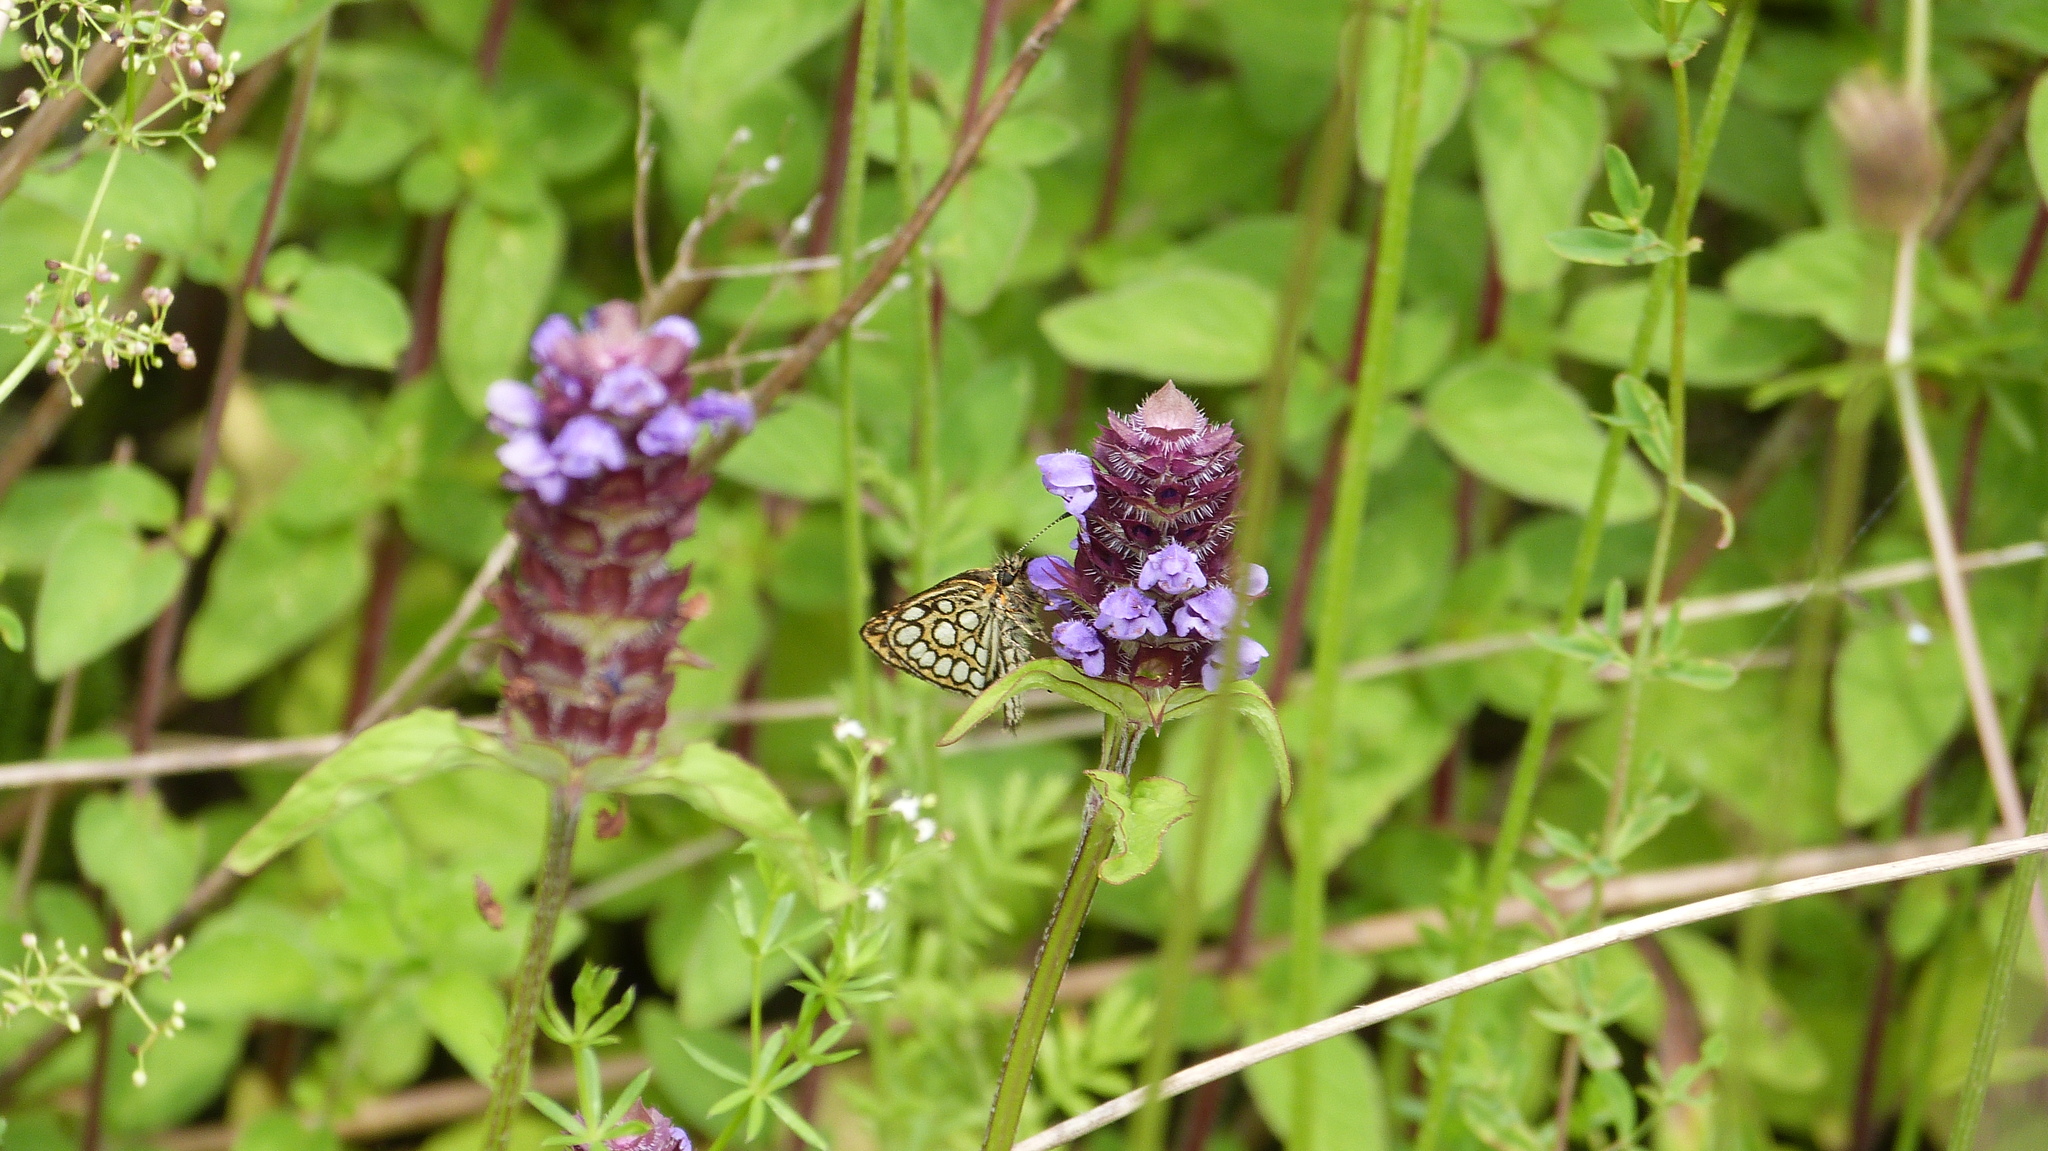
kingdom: Animalia
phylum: Arthropoda
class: Insecta
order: Lepidoptera
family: Hesperiidae
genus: Heteropterus
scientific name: Heteropterus morpheus
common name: Large chequered skipper
